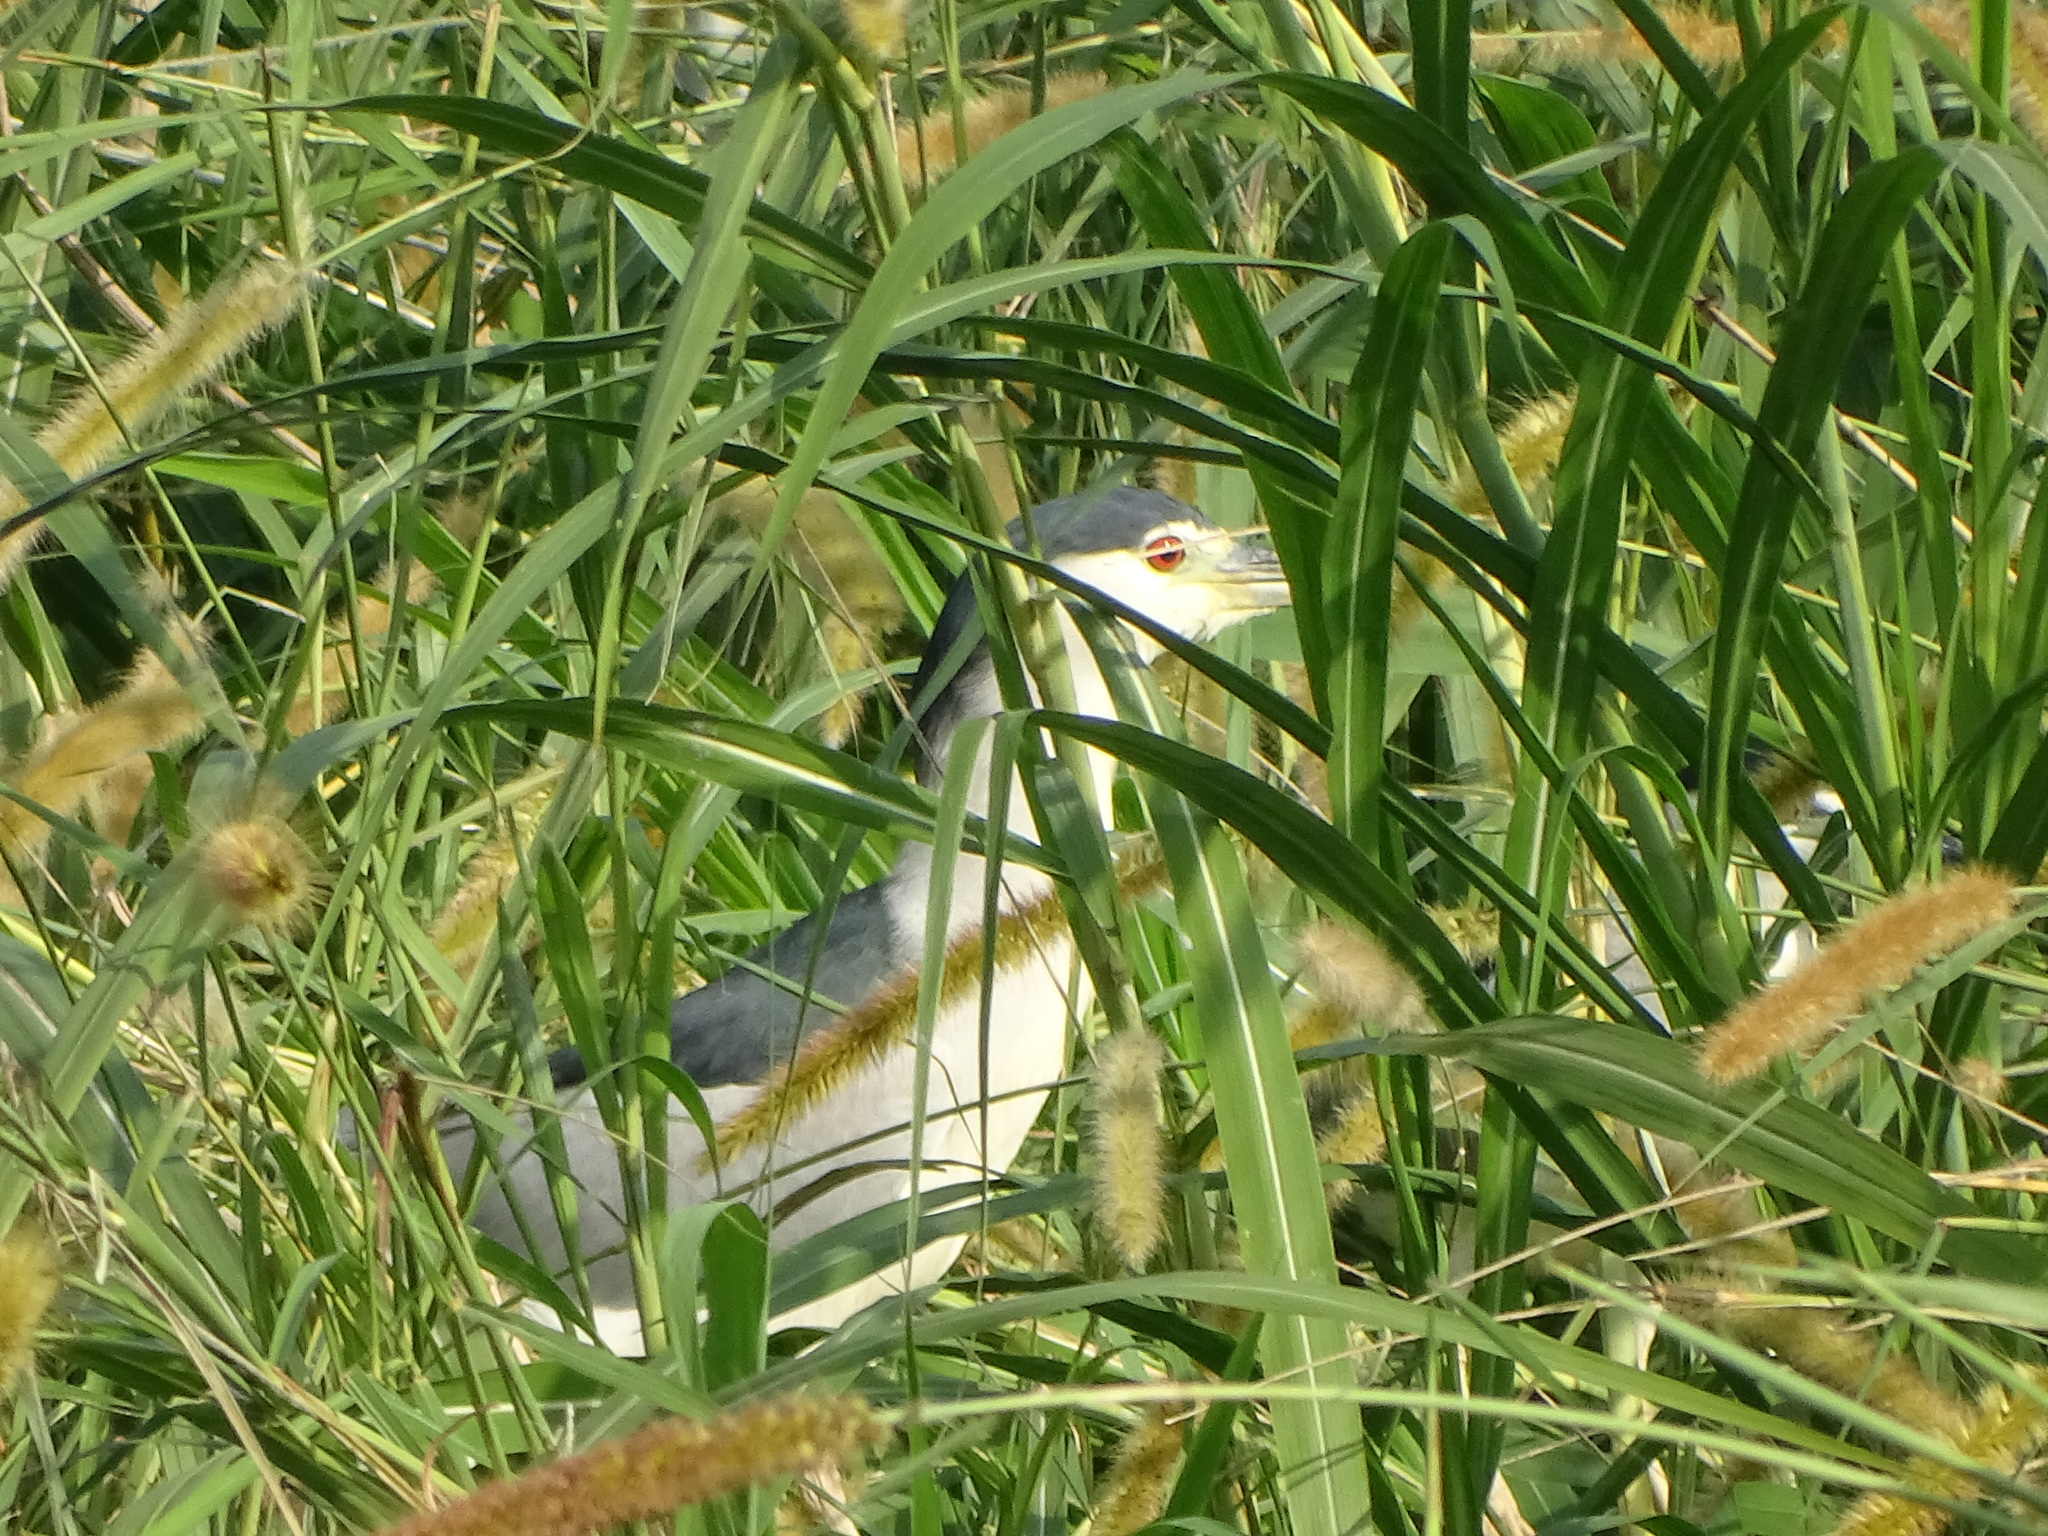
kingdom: Animalia
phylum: Chordata
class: Aves
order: Pelecaniformes
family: Ardeidae
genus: Nycticorax
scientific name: Nycticorax nycticorax
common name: Black-crowned night heron
